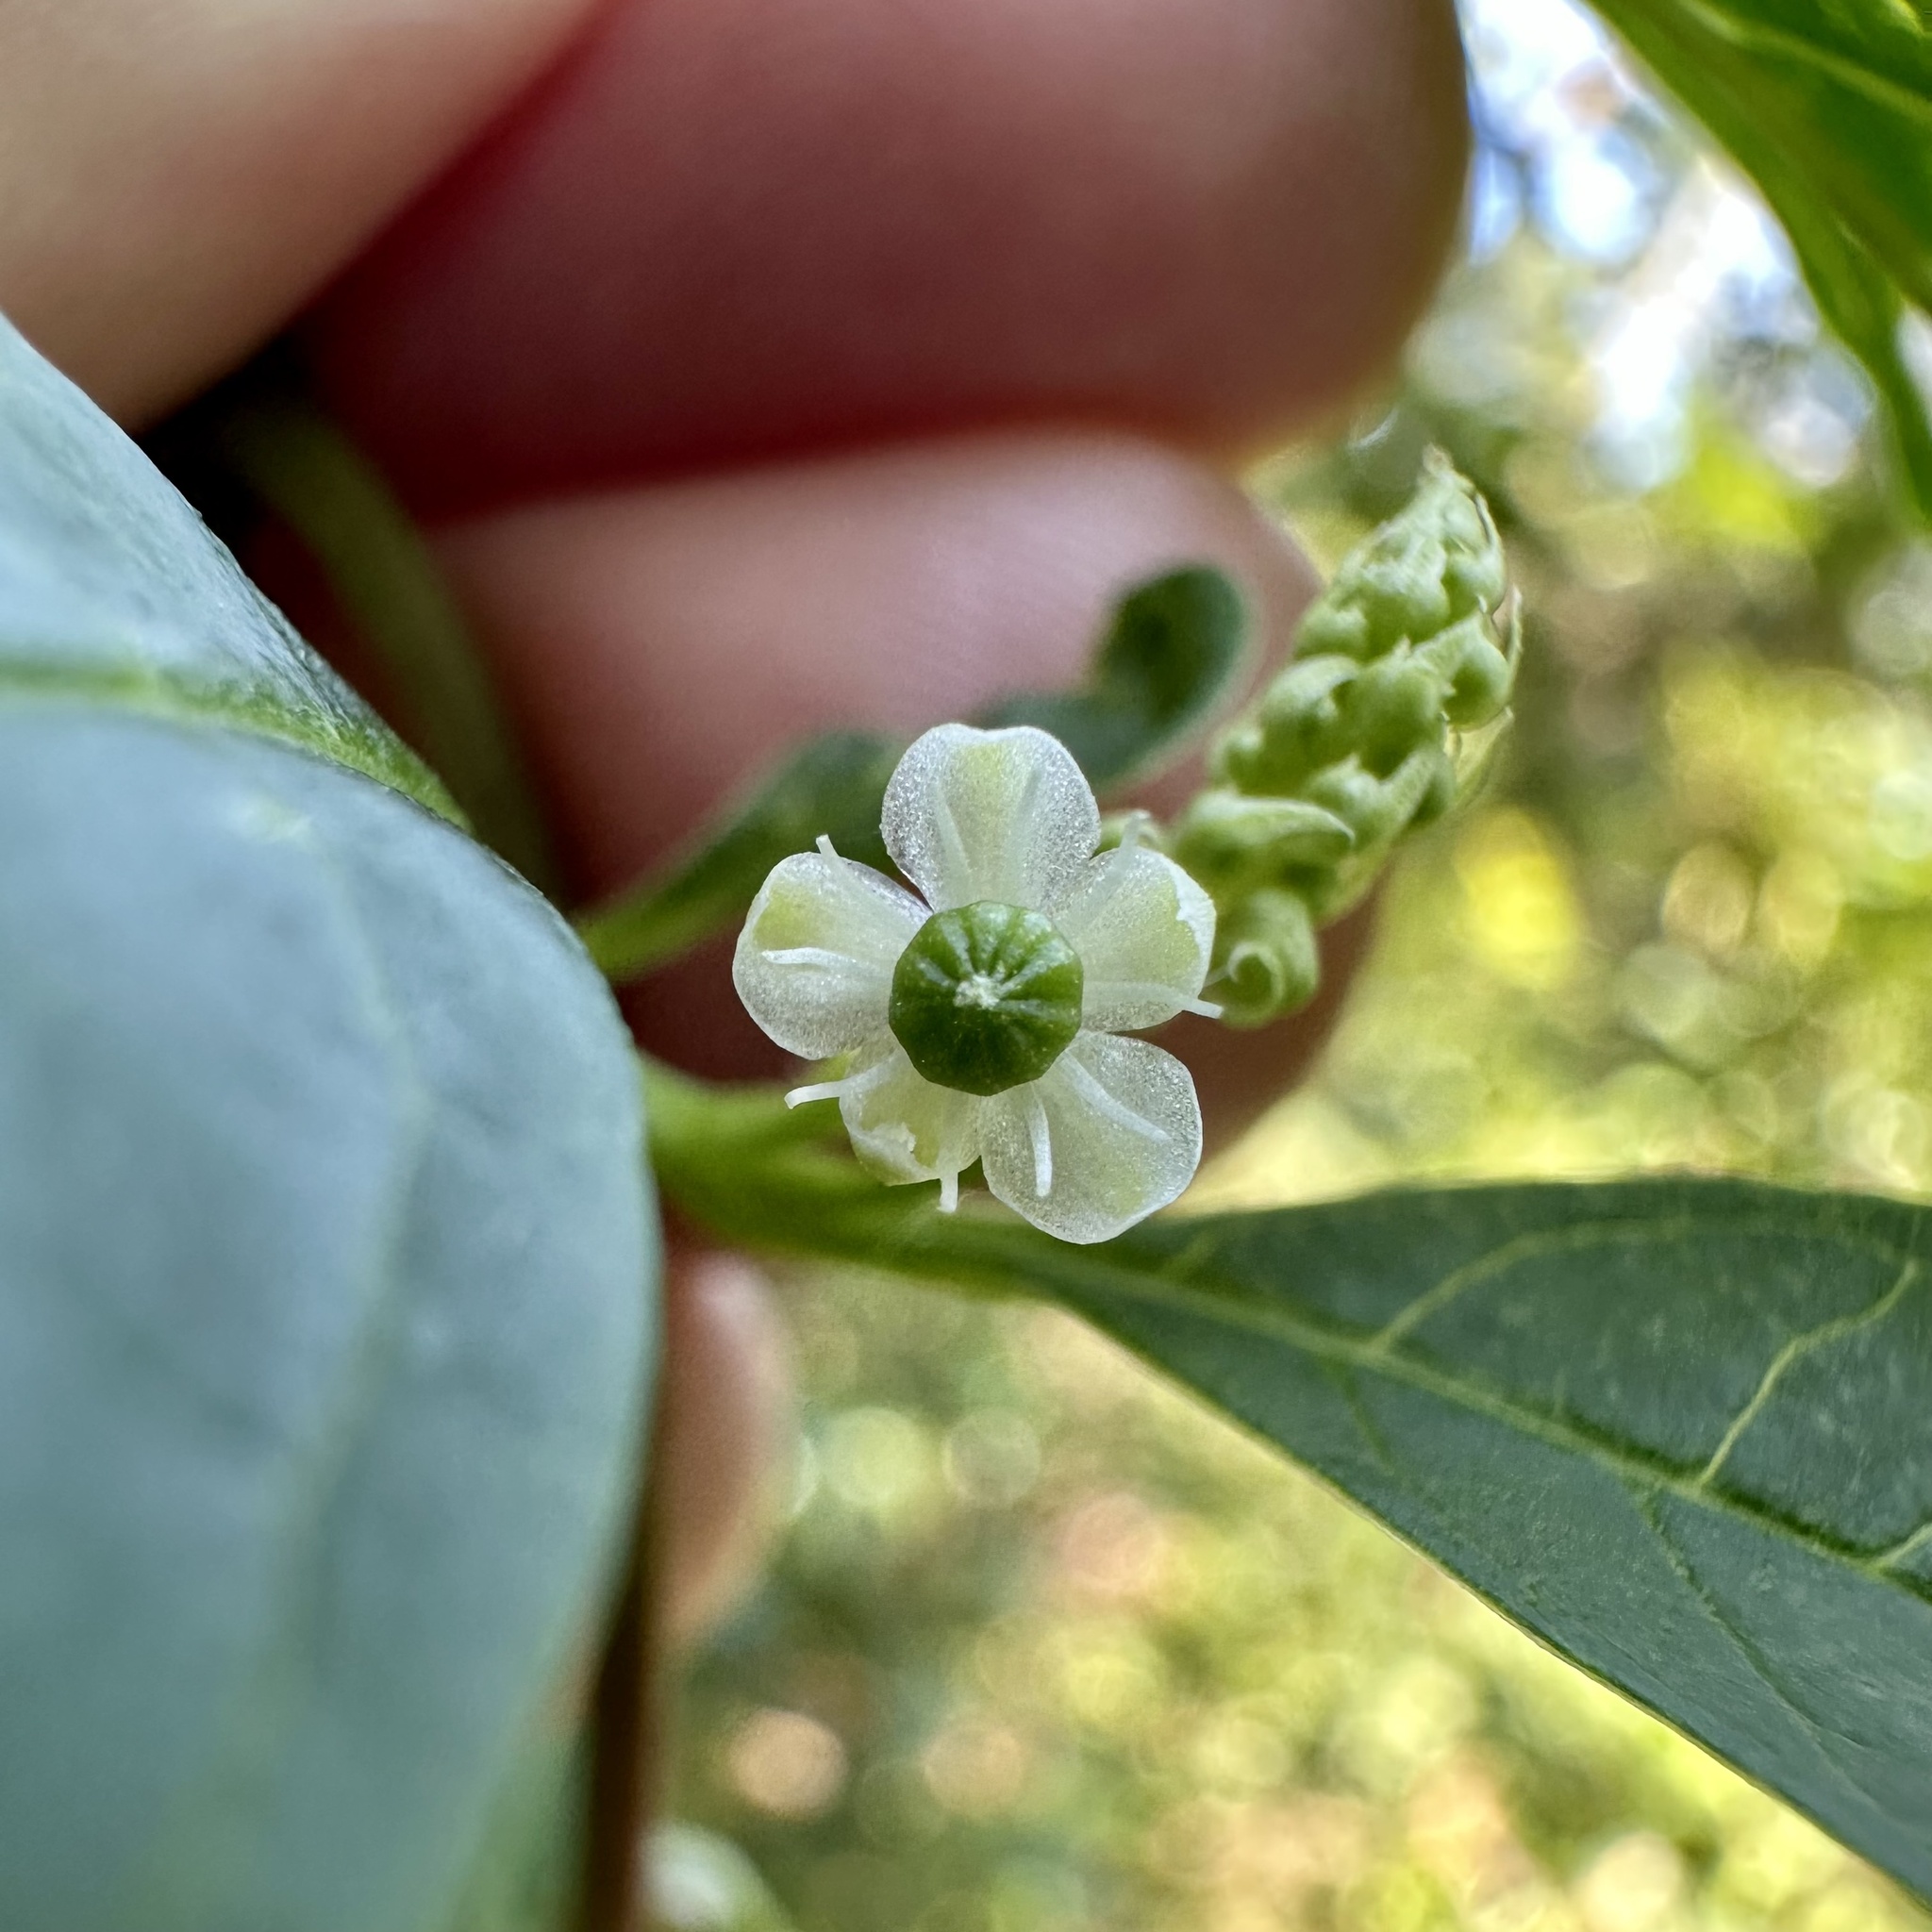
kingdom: Plantae
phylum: Tracheophyta
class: Magnoliopsida
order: Caryophyllales
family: Phytolaccaceae
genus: Phytolacca
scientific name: Phytolacca americana
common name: American pokeweed
